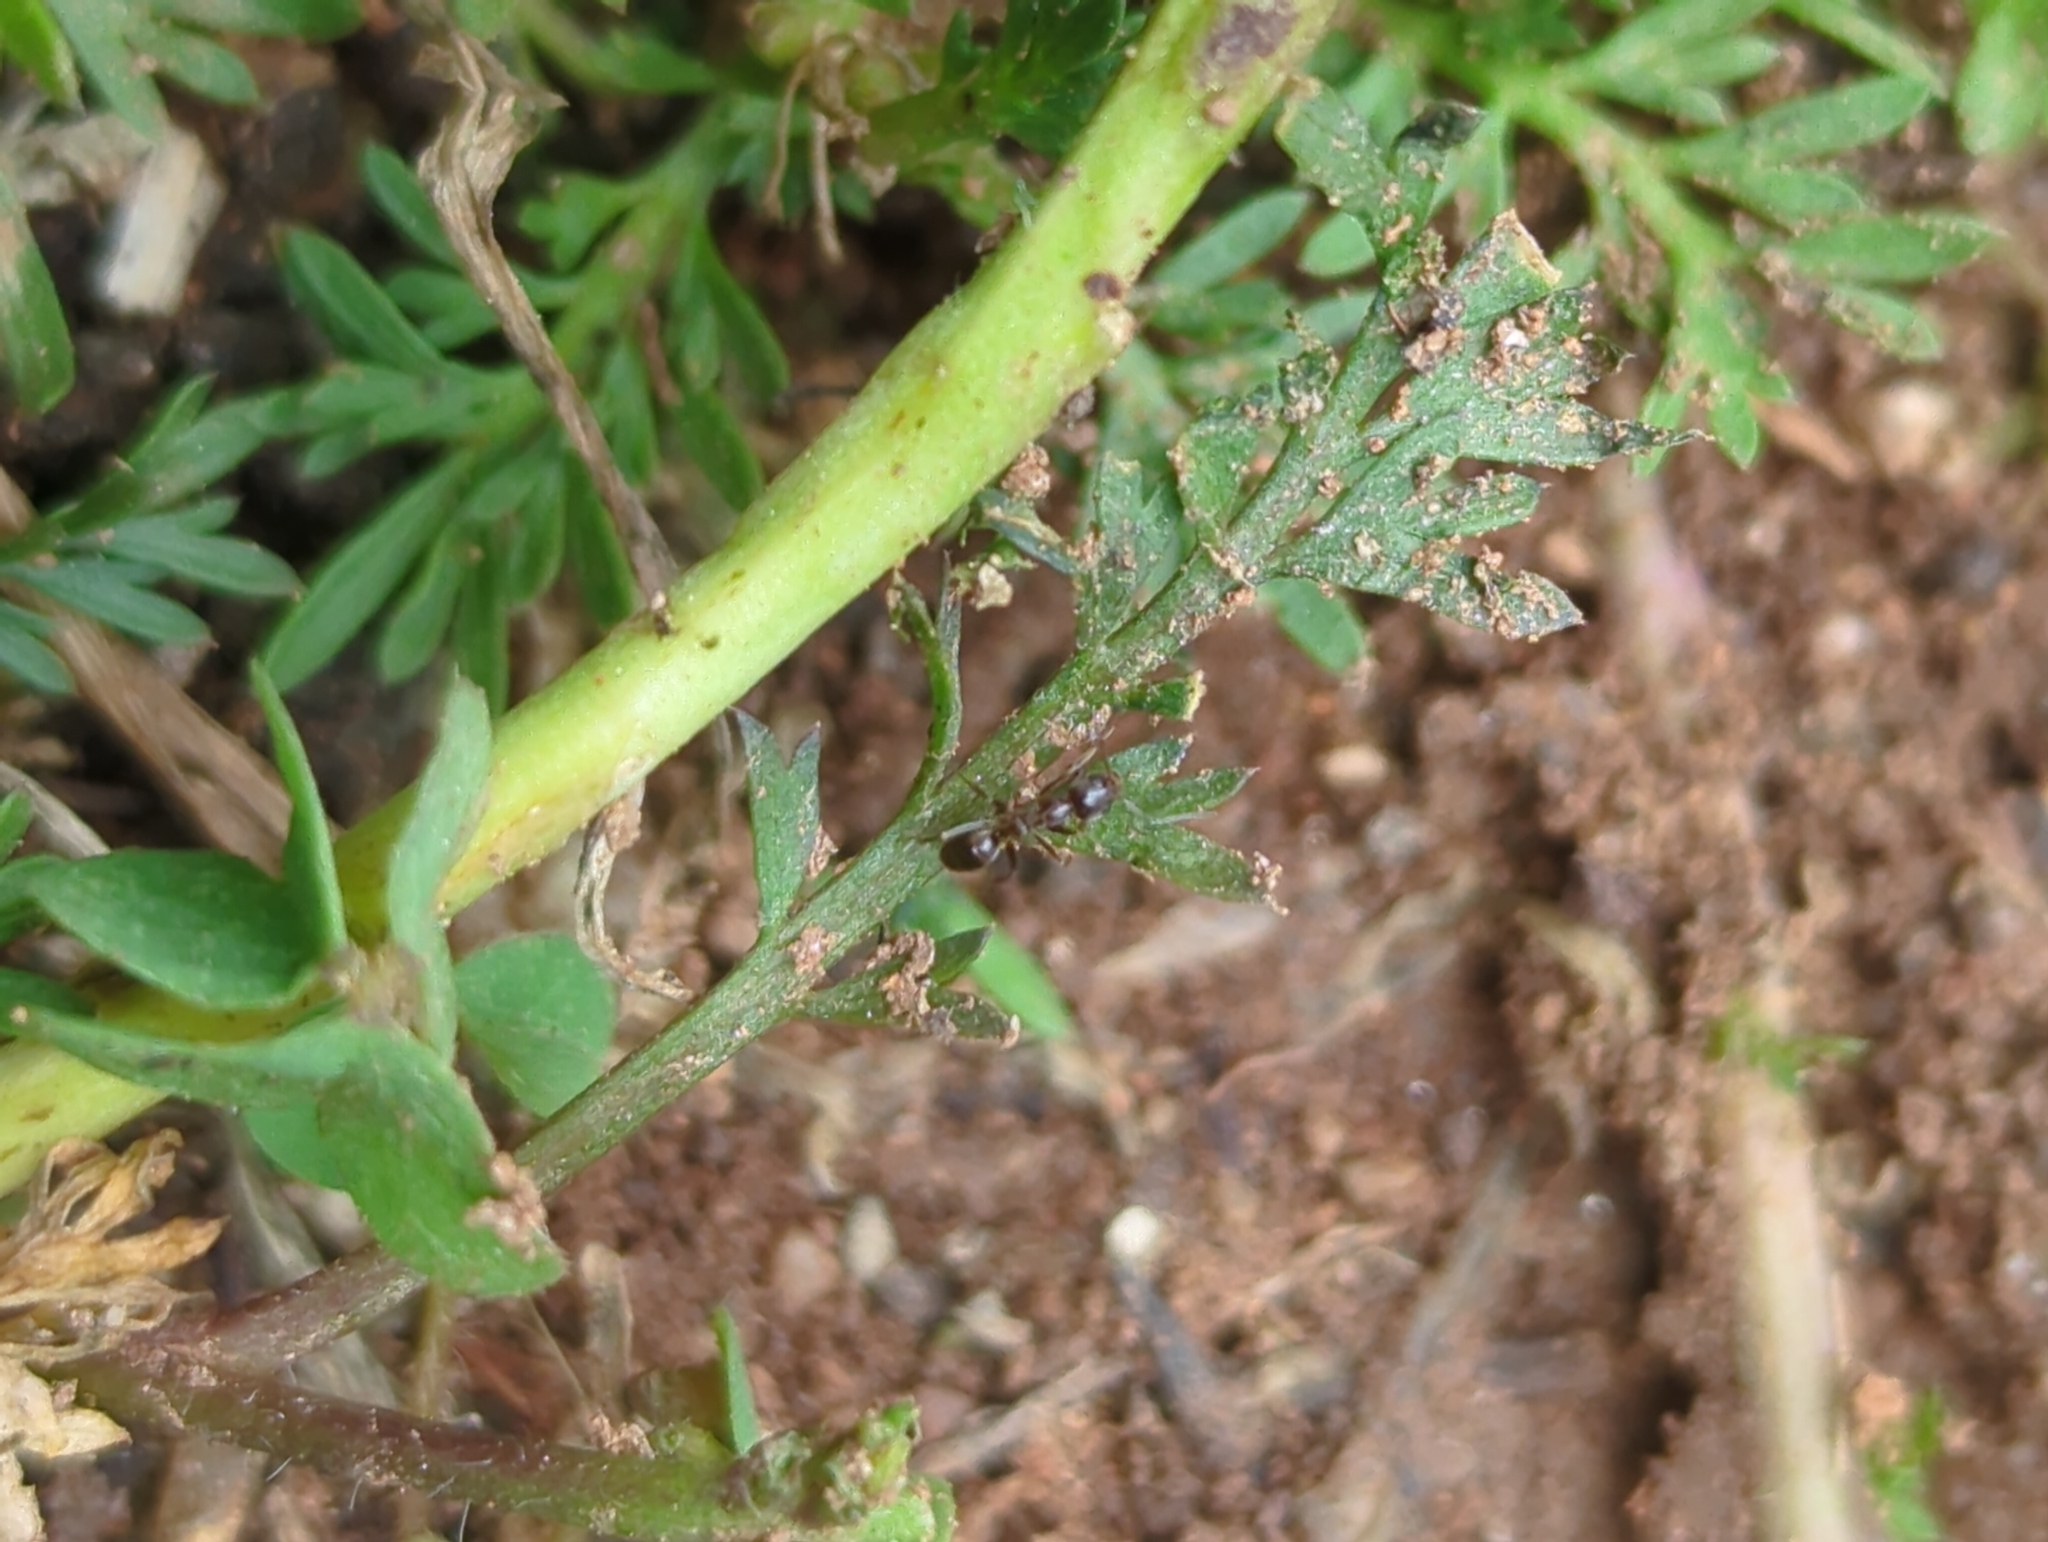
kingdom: Animalia
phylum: Arthropoda
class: Insecta
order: Hymenoptera
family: Formicidae
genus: Linepithema
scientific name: Linepithema humile
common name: Argentine ant
